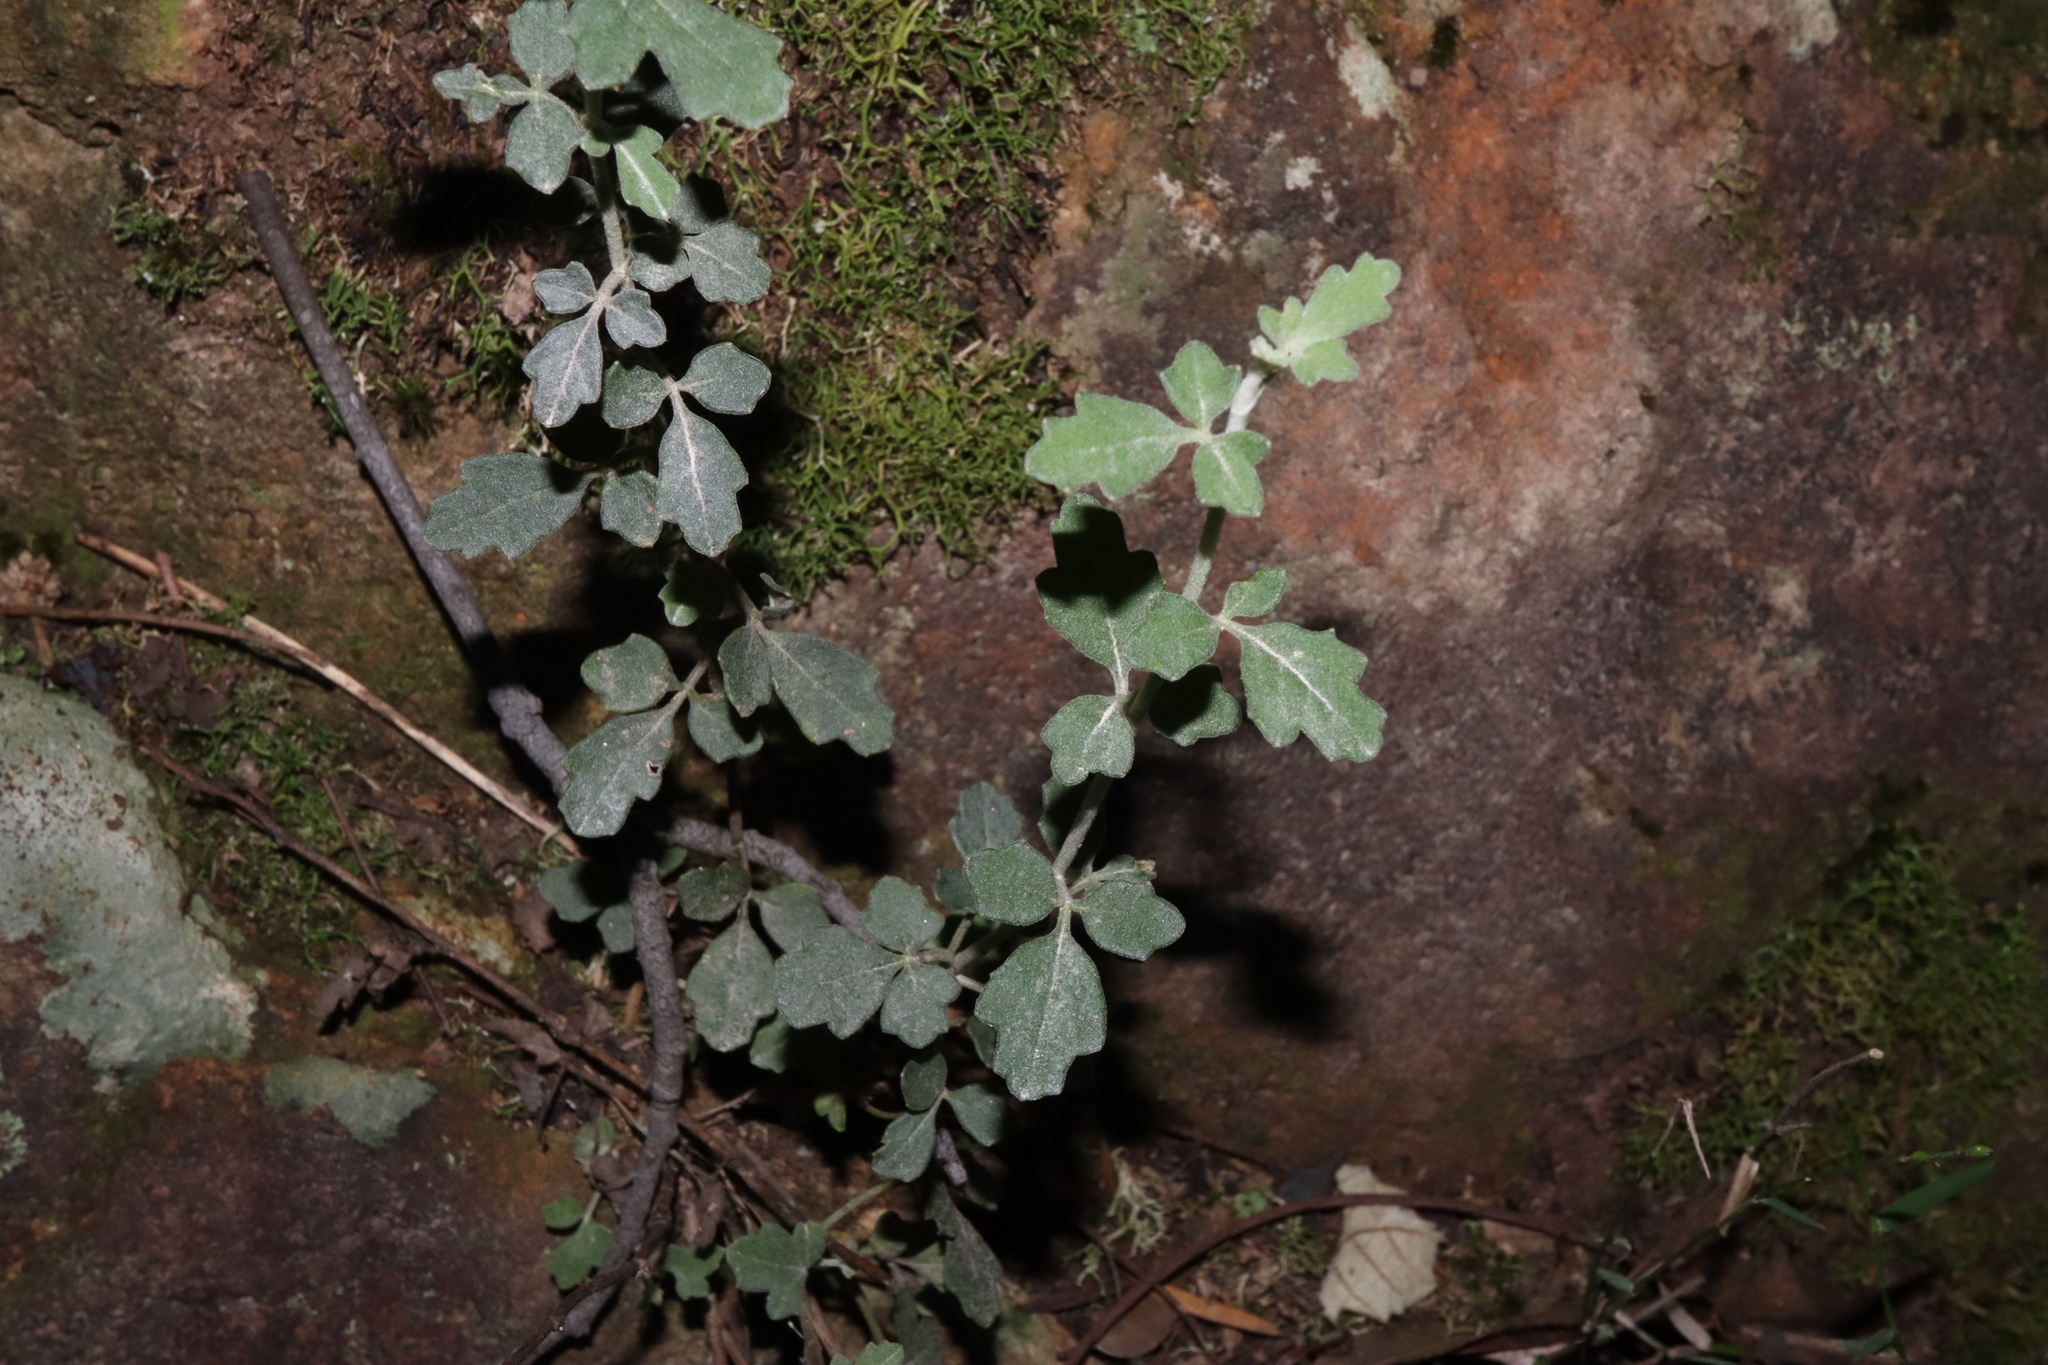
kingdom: Plantae
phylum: Tracheophyta
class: Magnoliopsida
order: Apiales
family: Apiaceae
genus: Xanthosia
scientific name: Xanthosia scopulicola
